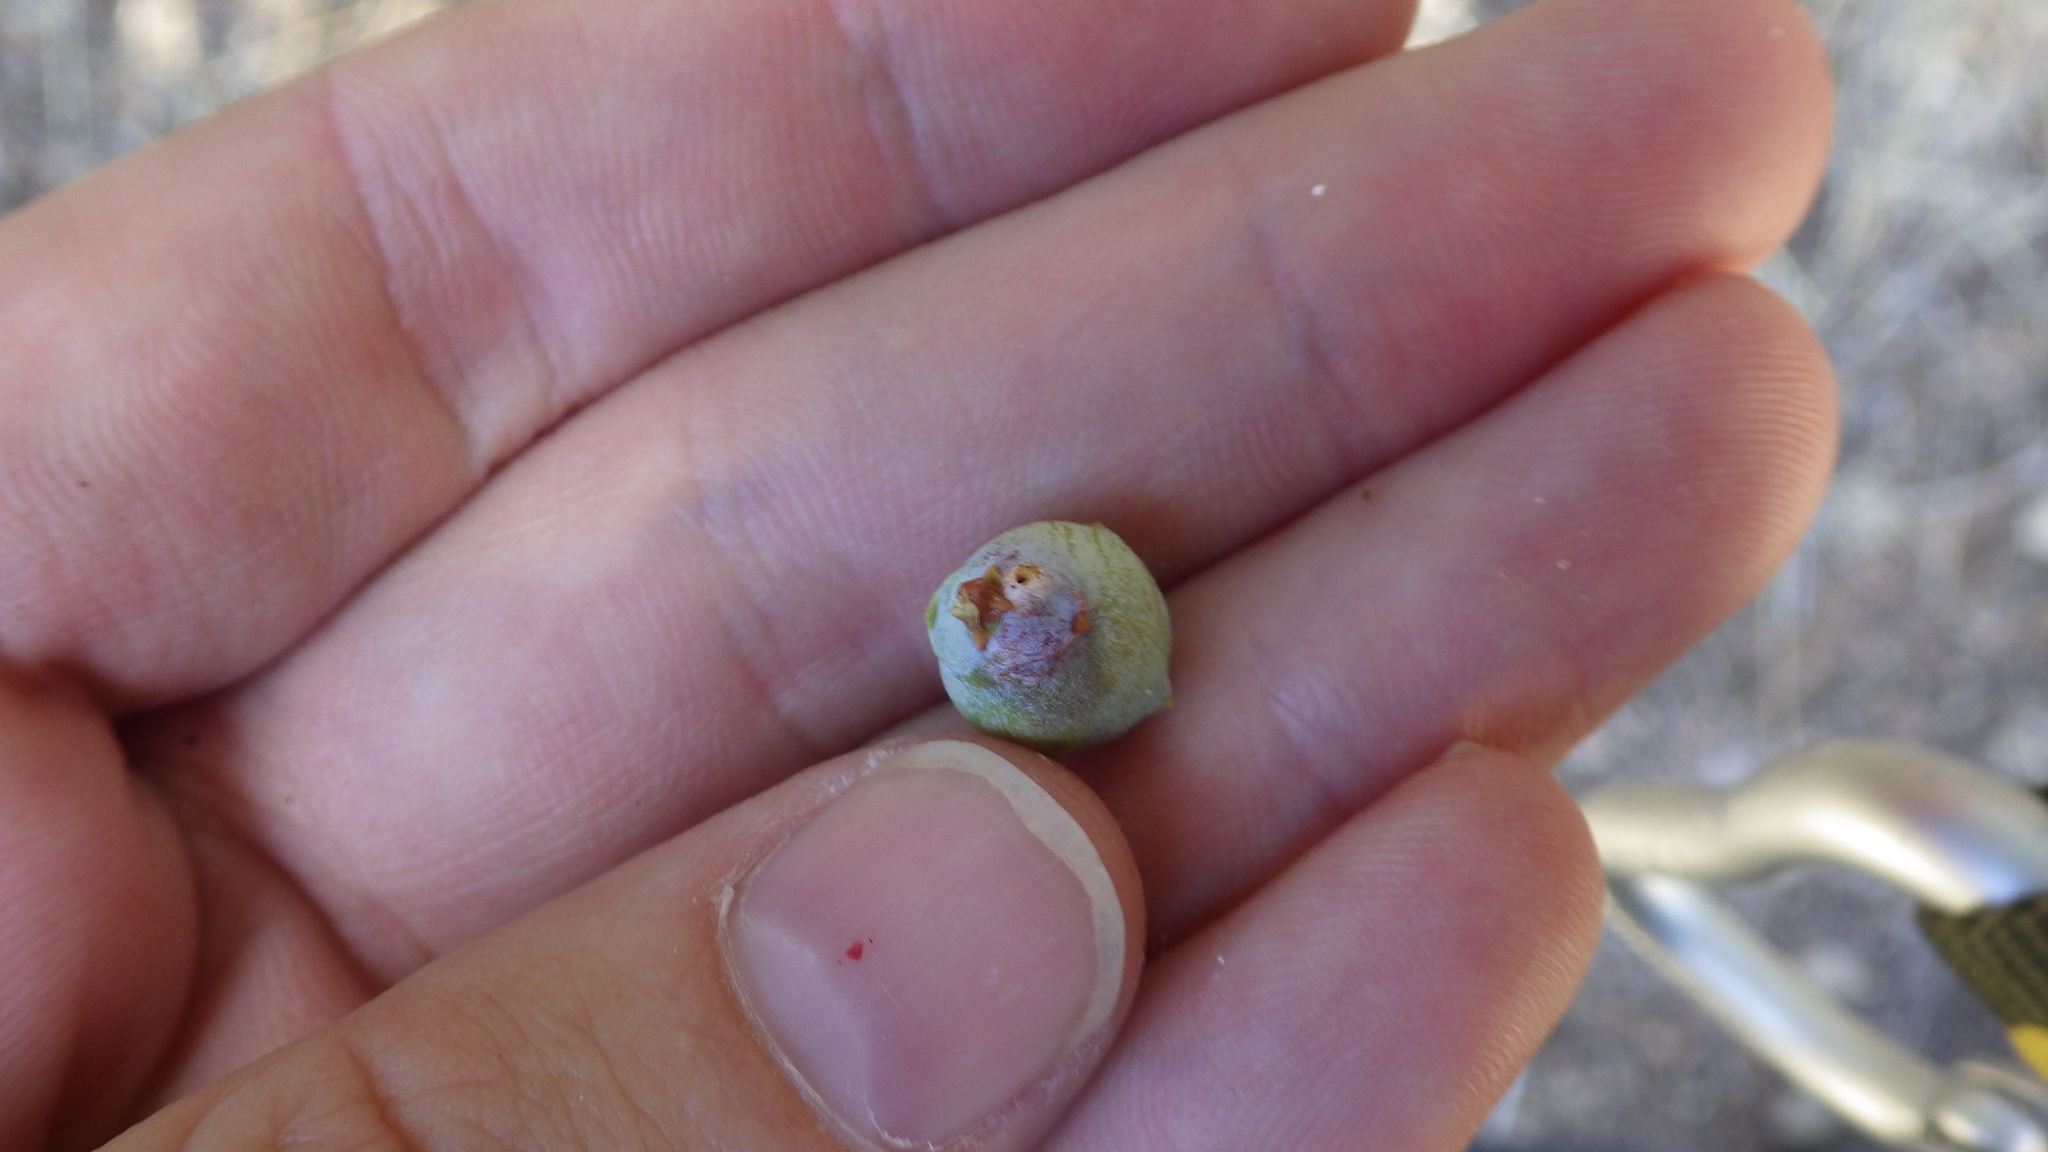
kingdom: Plantae
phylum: Tracheophyta
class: Pinopsida
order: Pinales
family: Cupressaceae
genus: Juniperus
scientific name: Juniperus deppeana
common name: Alligator juniper
